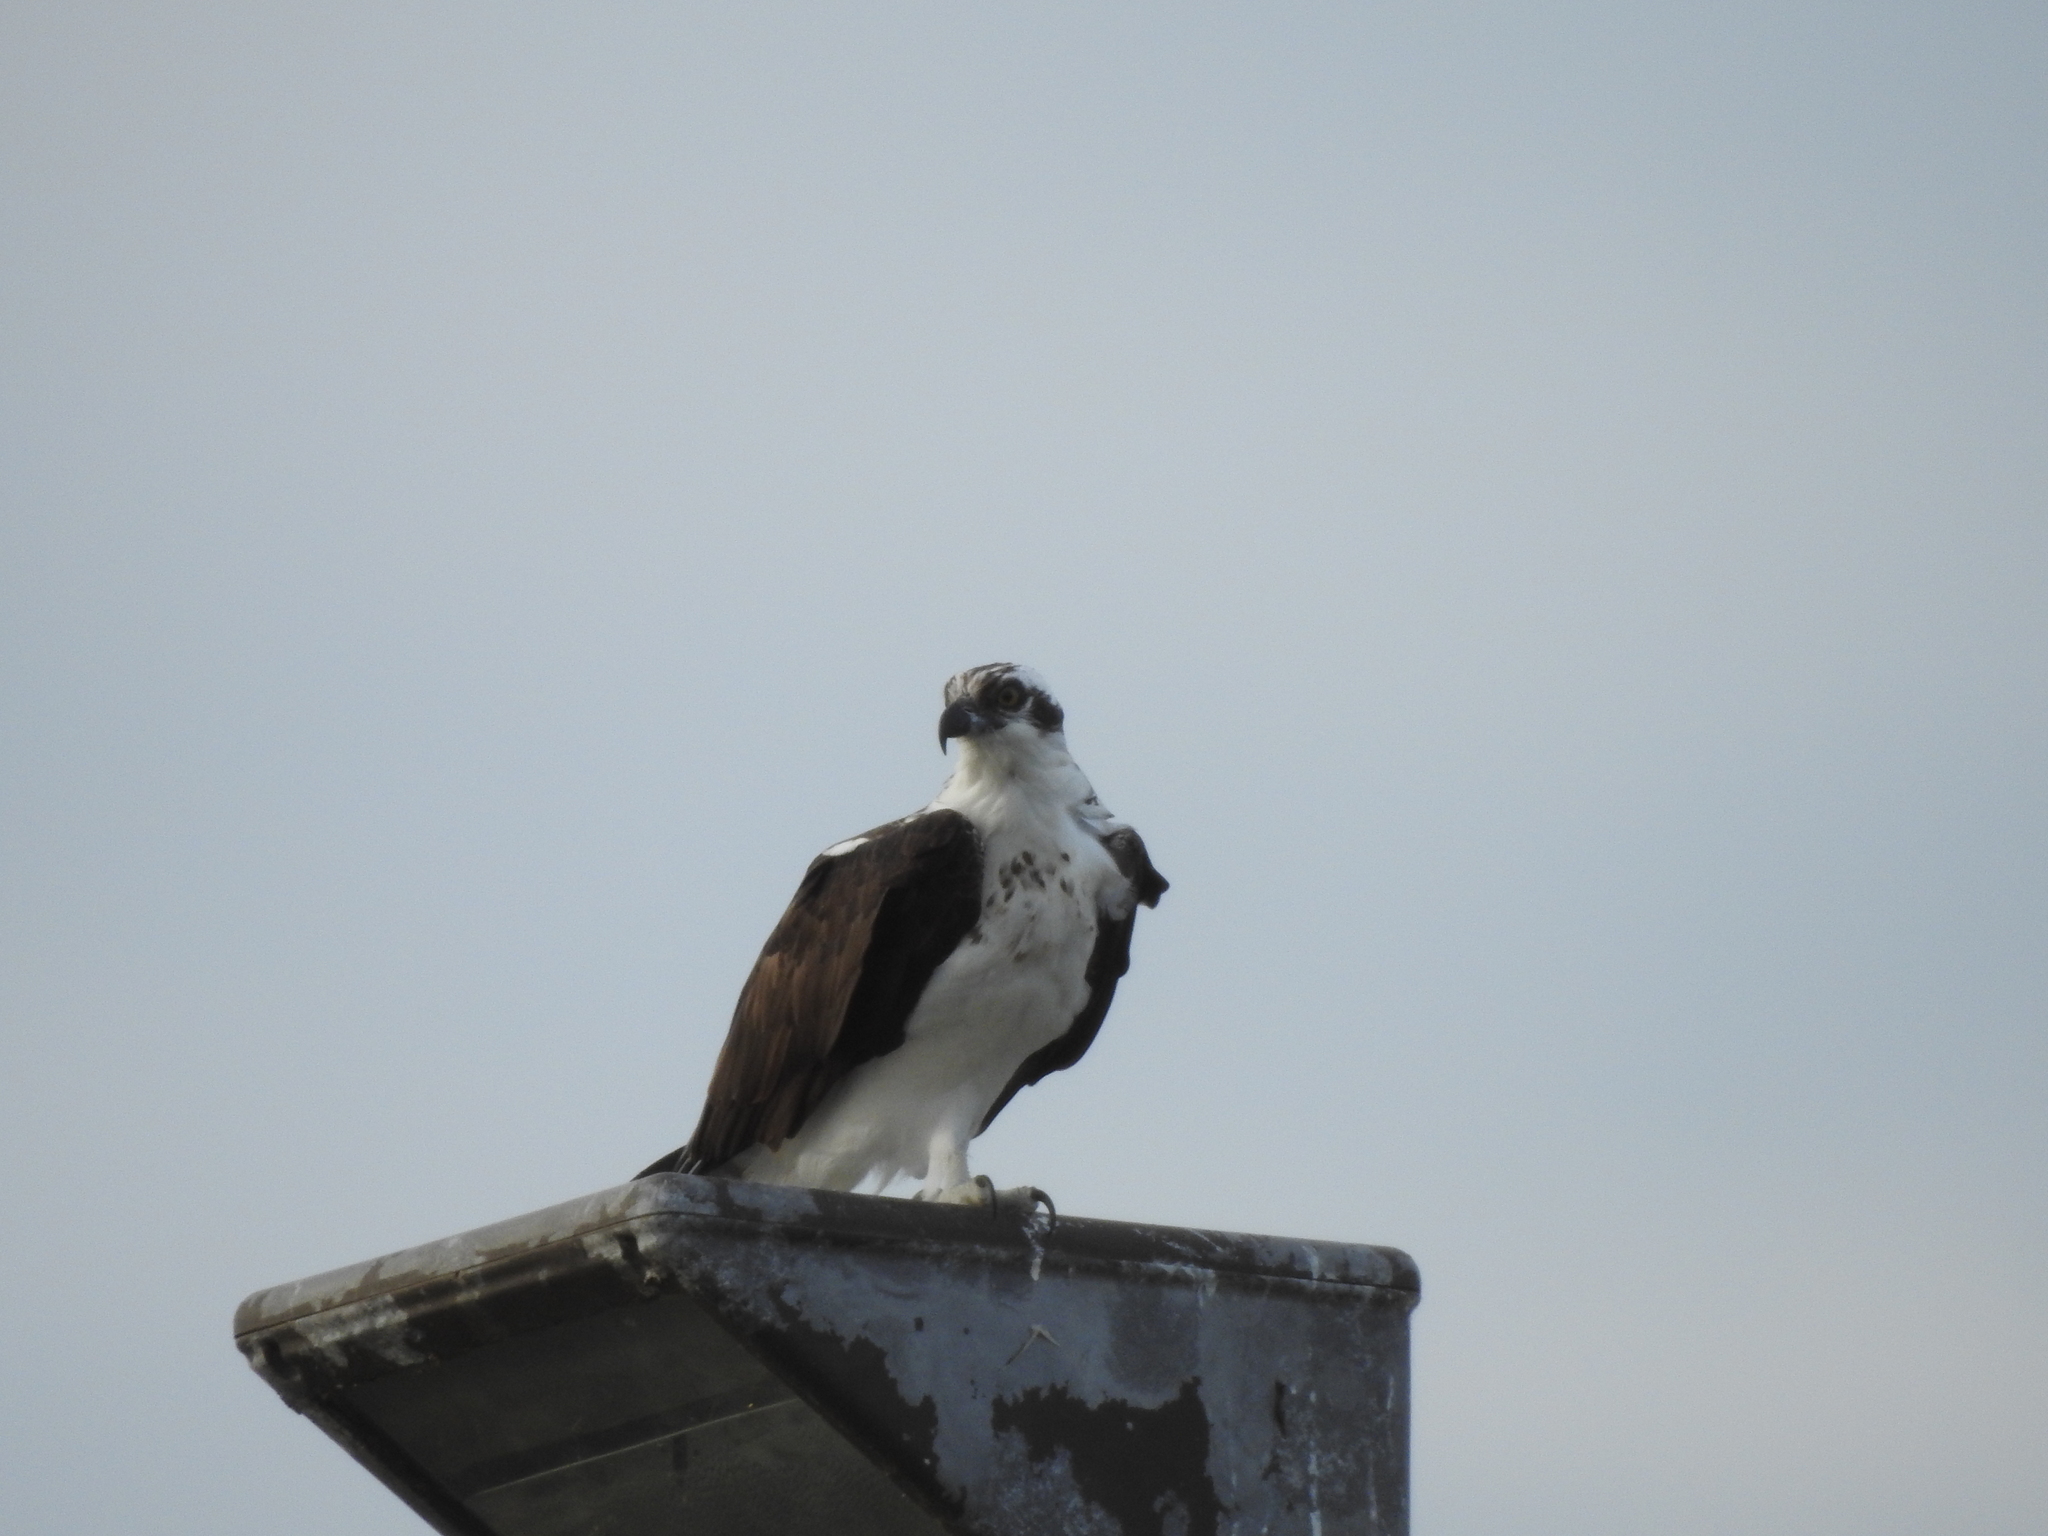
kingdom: Animalia
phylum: Chordata
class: Aves
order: Accipitriformes
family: Pandionidae
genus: Pandion
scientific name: Pandion haliaetus
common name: Osprey
